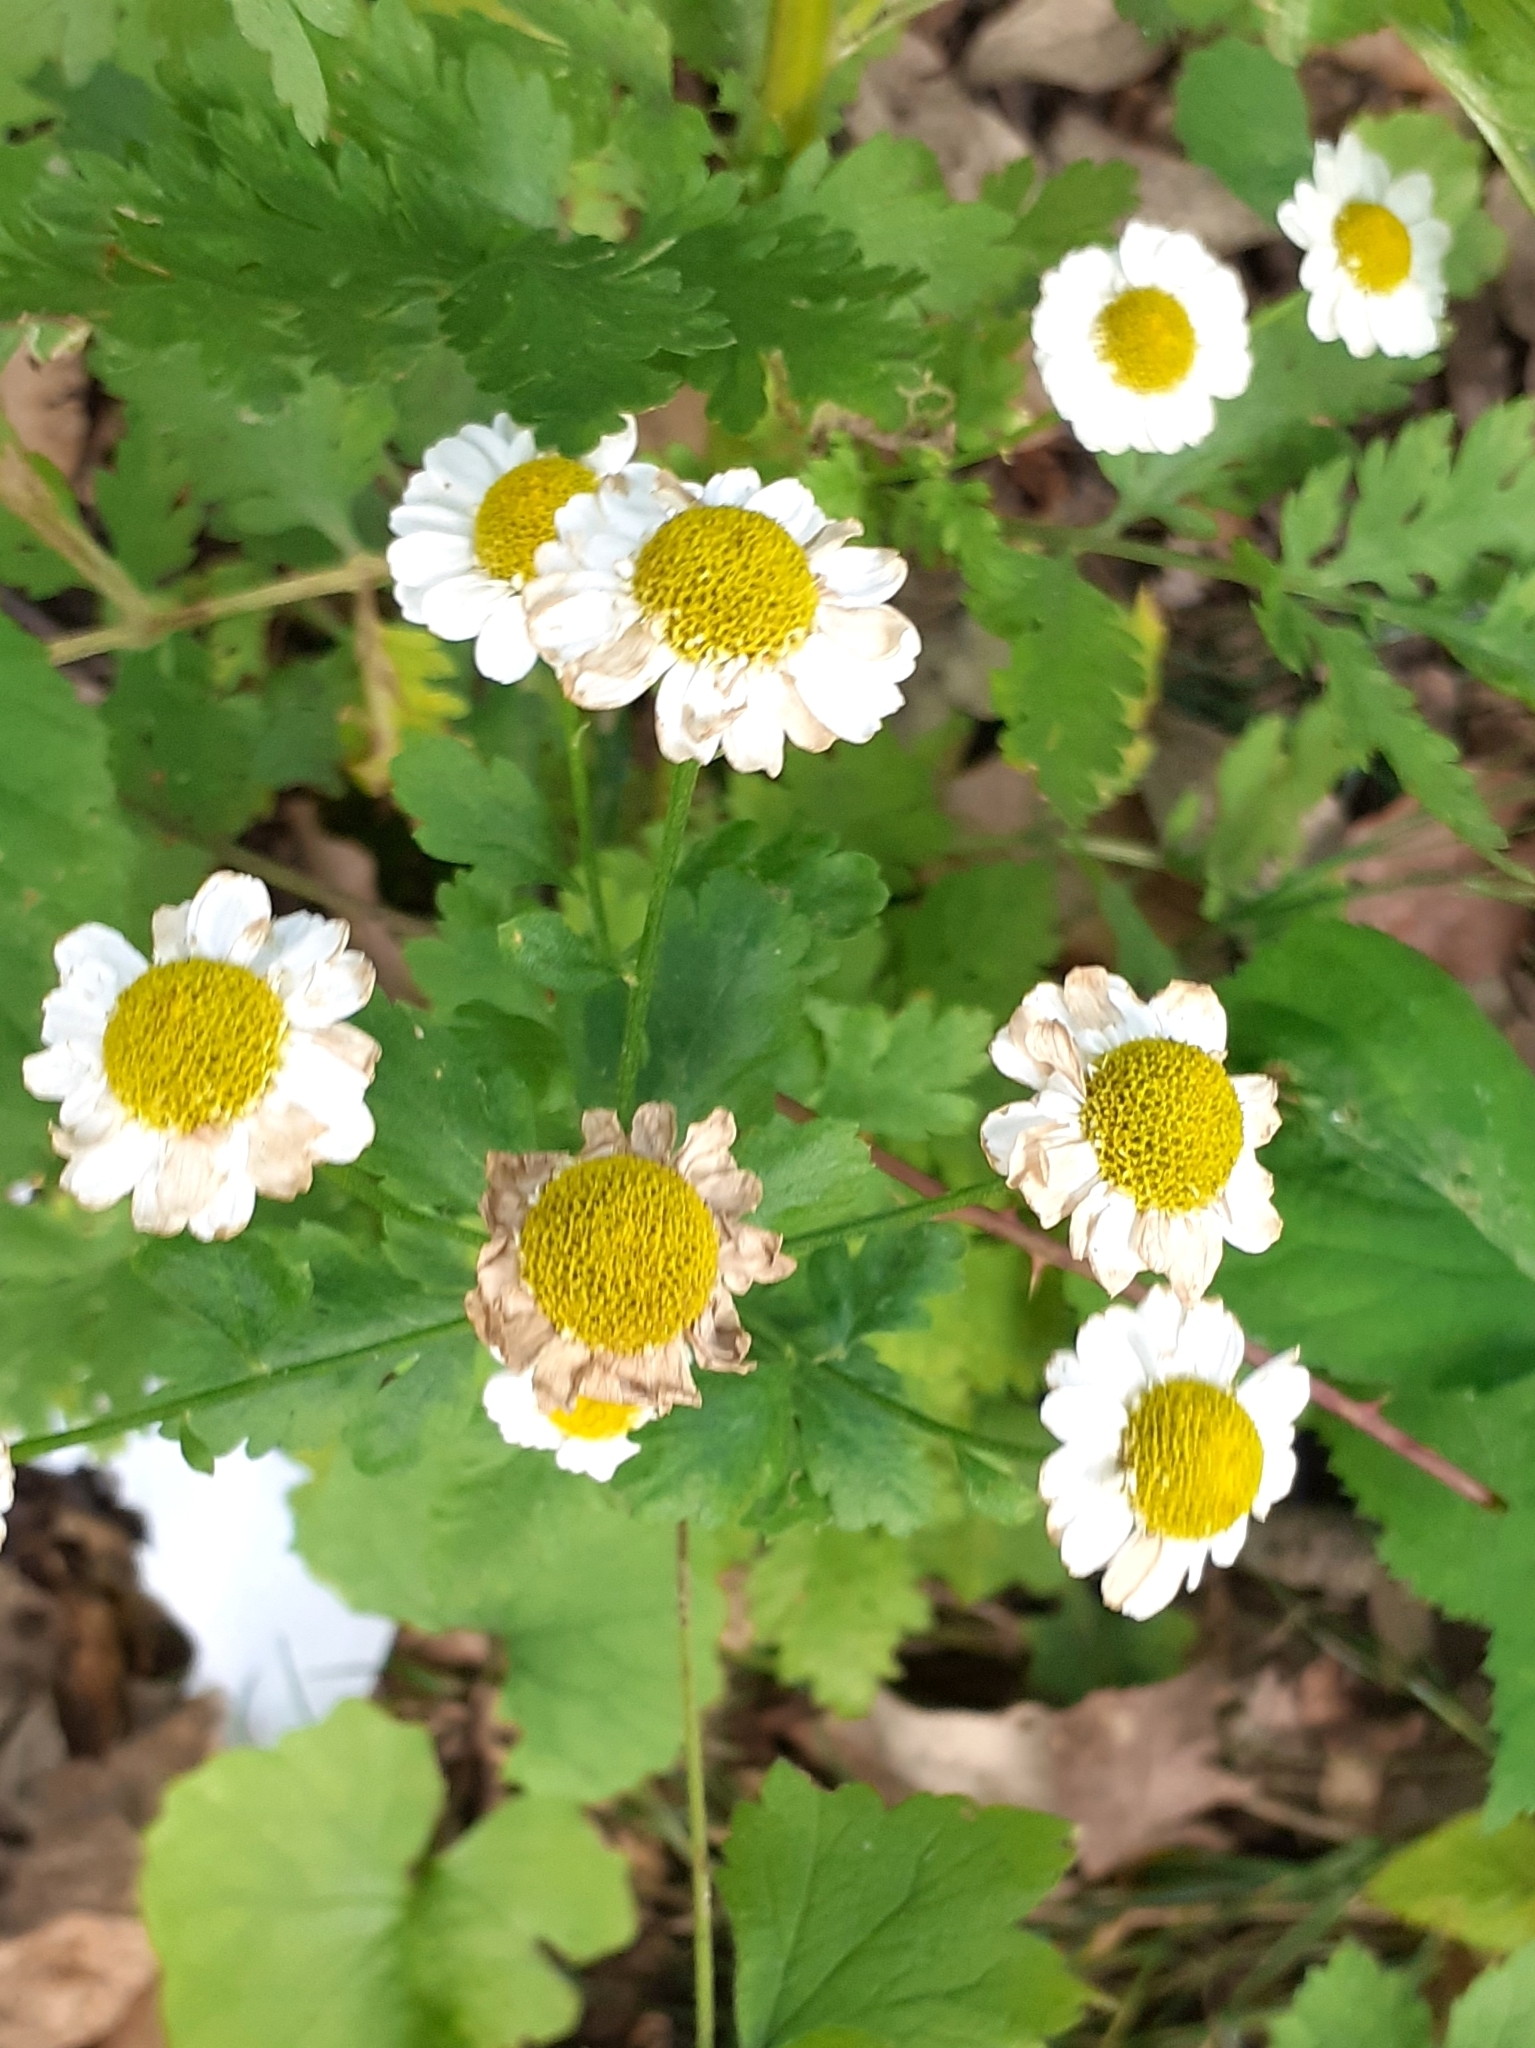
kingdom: Plantae
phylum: Tracheophyta
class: Magnoliopsida
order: Asterales
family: Asteraceae
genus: Tanacetum
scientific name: Tanacetum parthenium
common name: Feverfew
